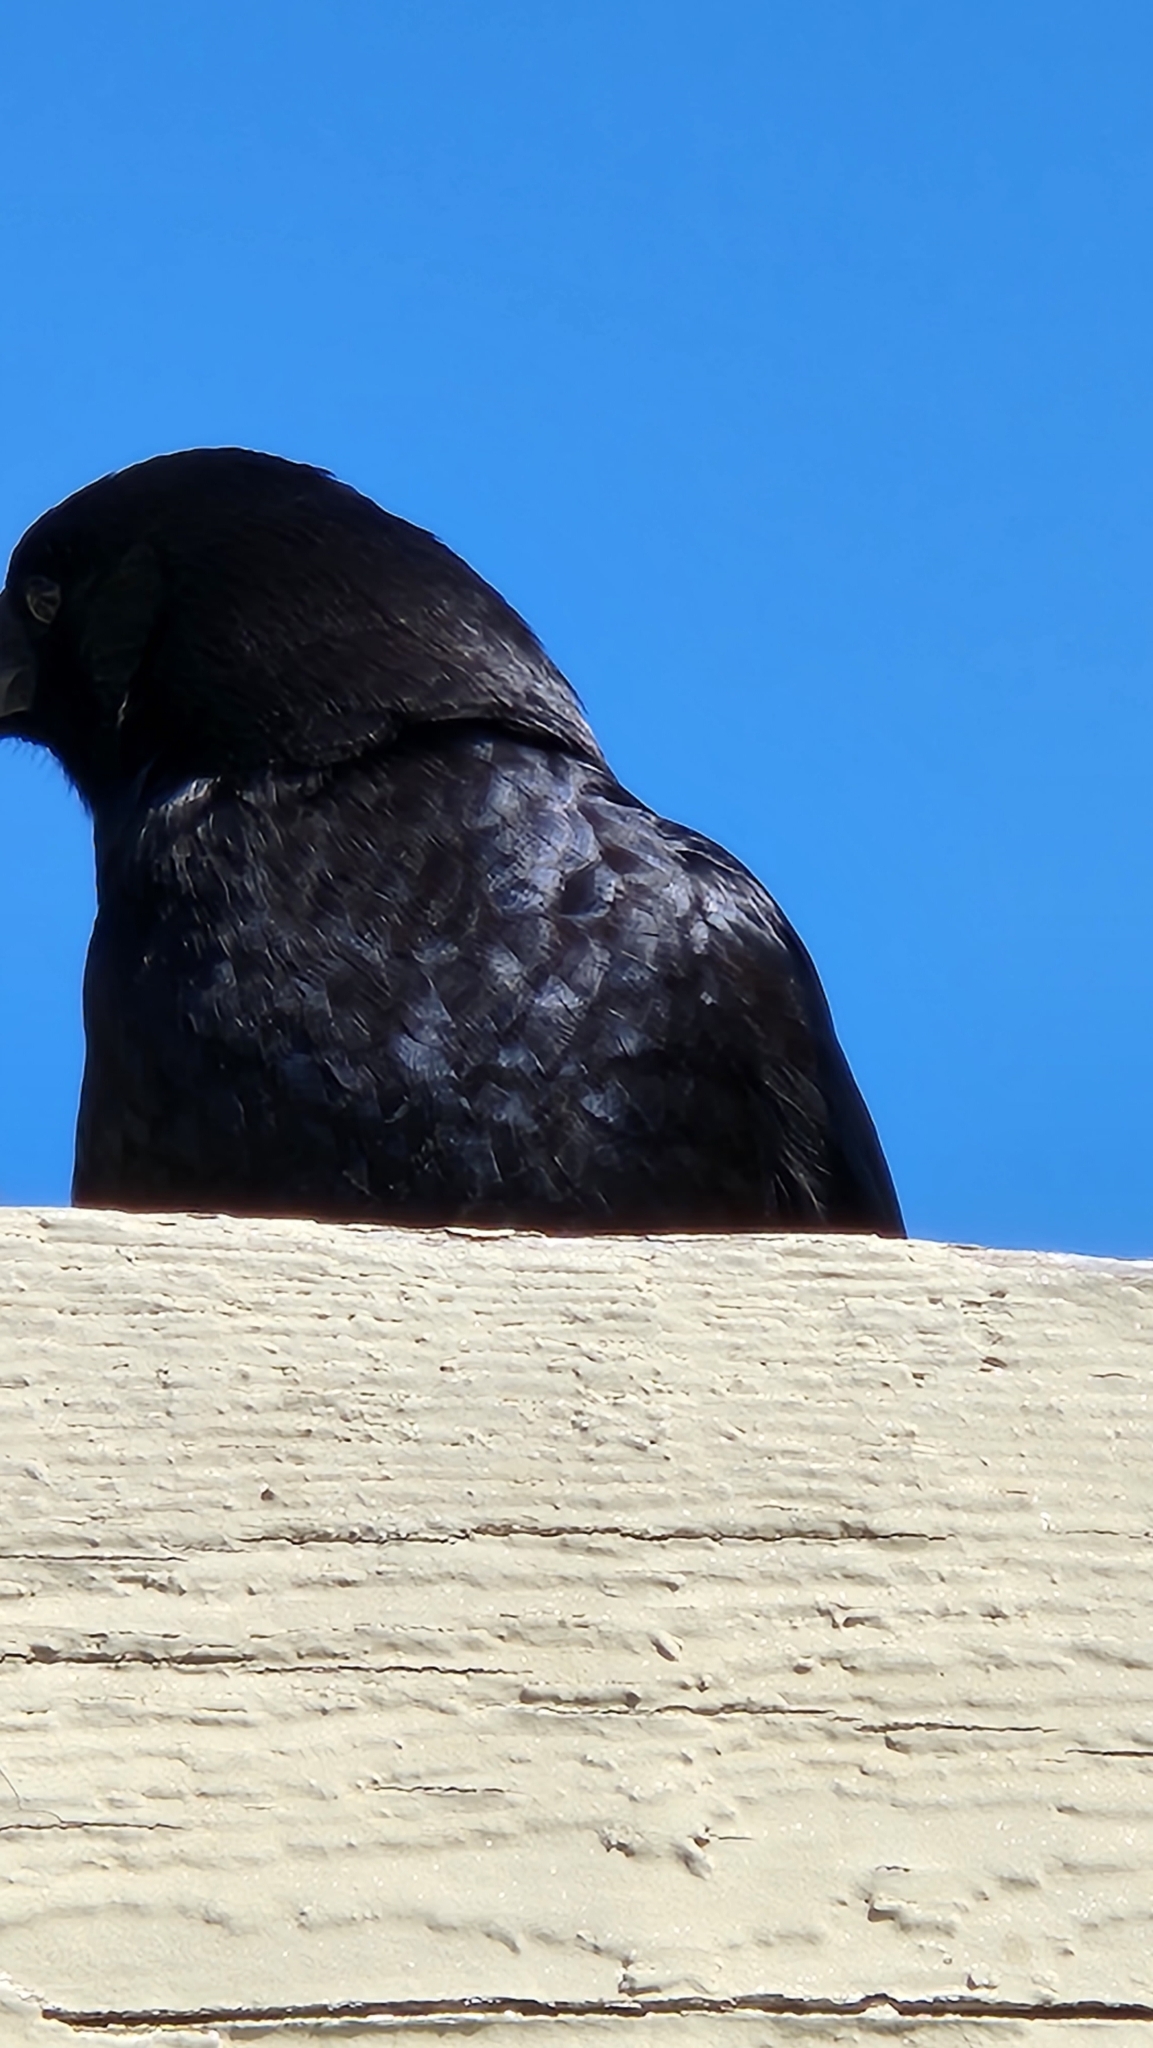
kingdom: Animalia
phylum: Chordata
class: Aves
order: Passeriformes
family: Corvidae
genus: Corvus
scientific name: Corvus corax
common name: Common raven
